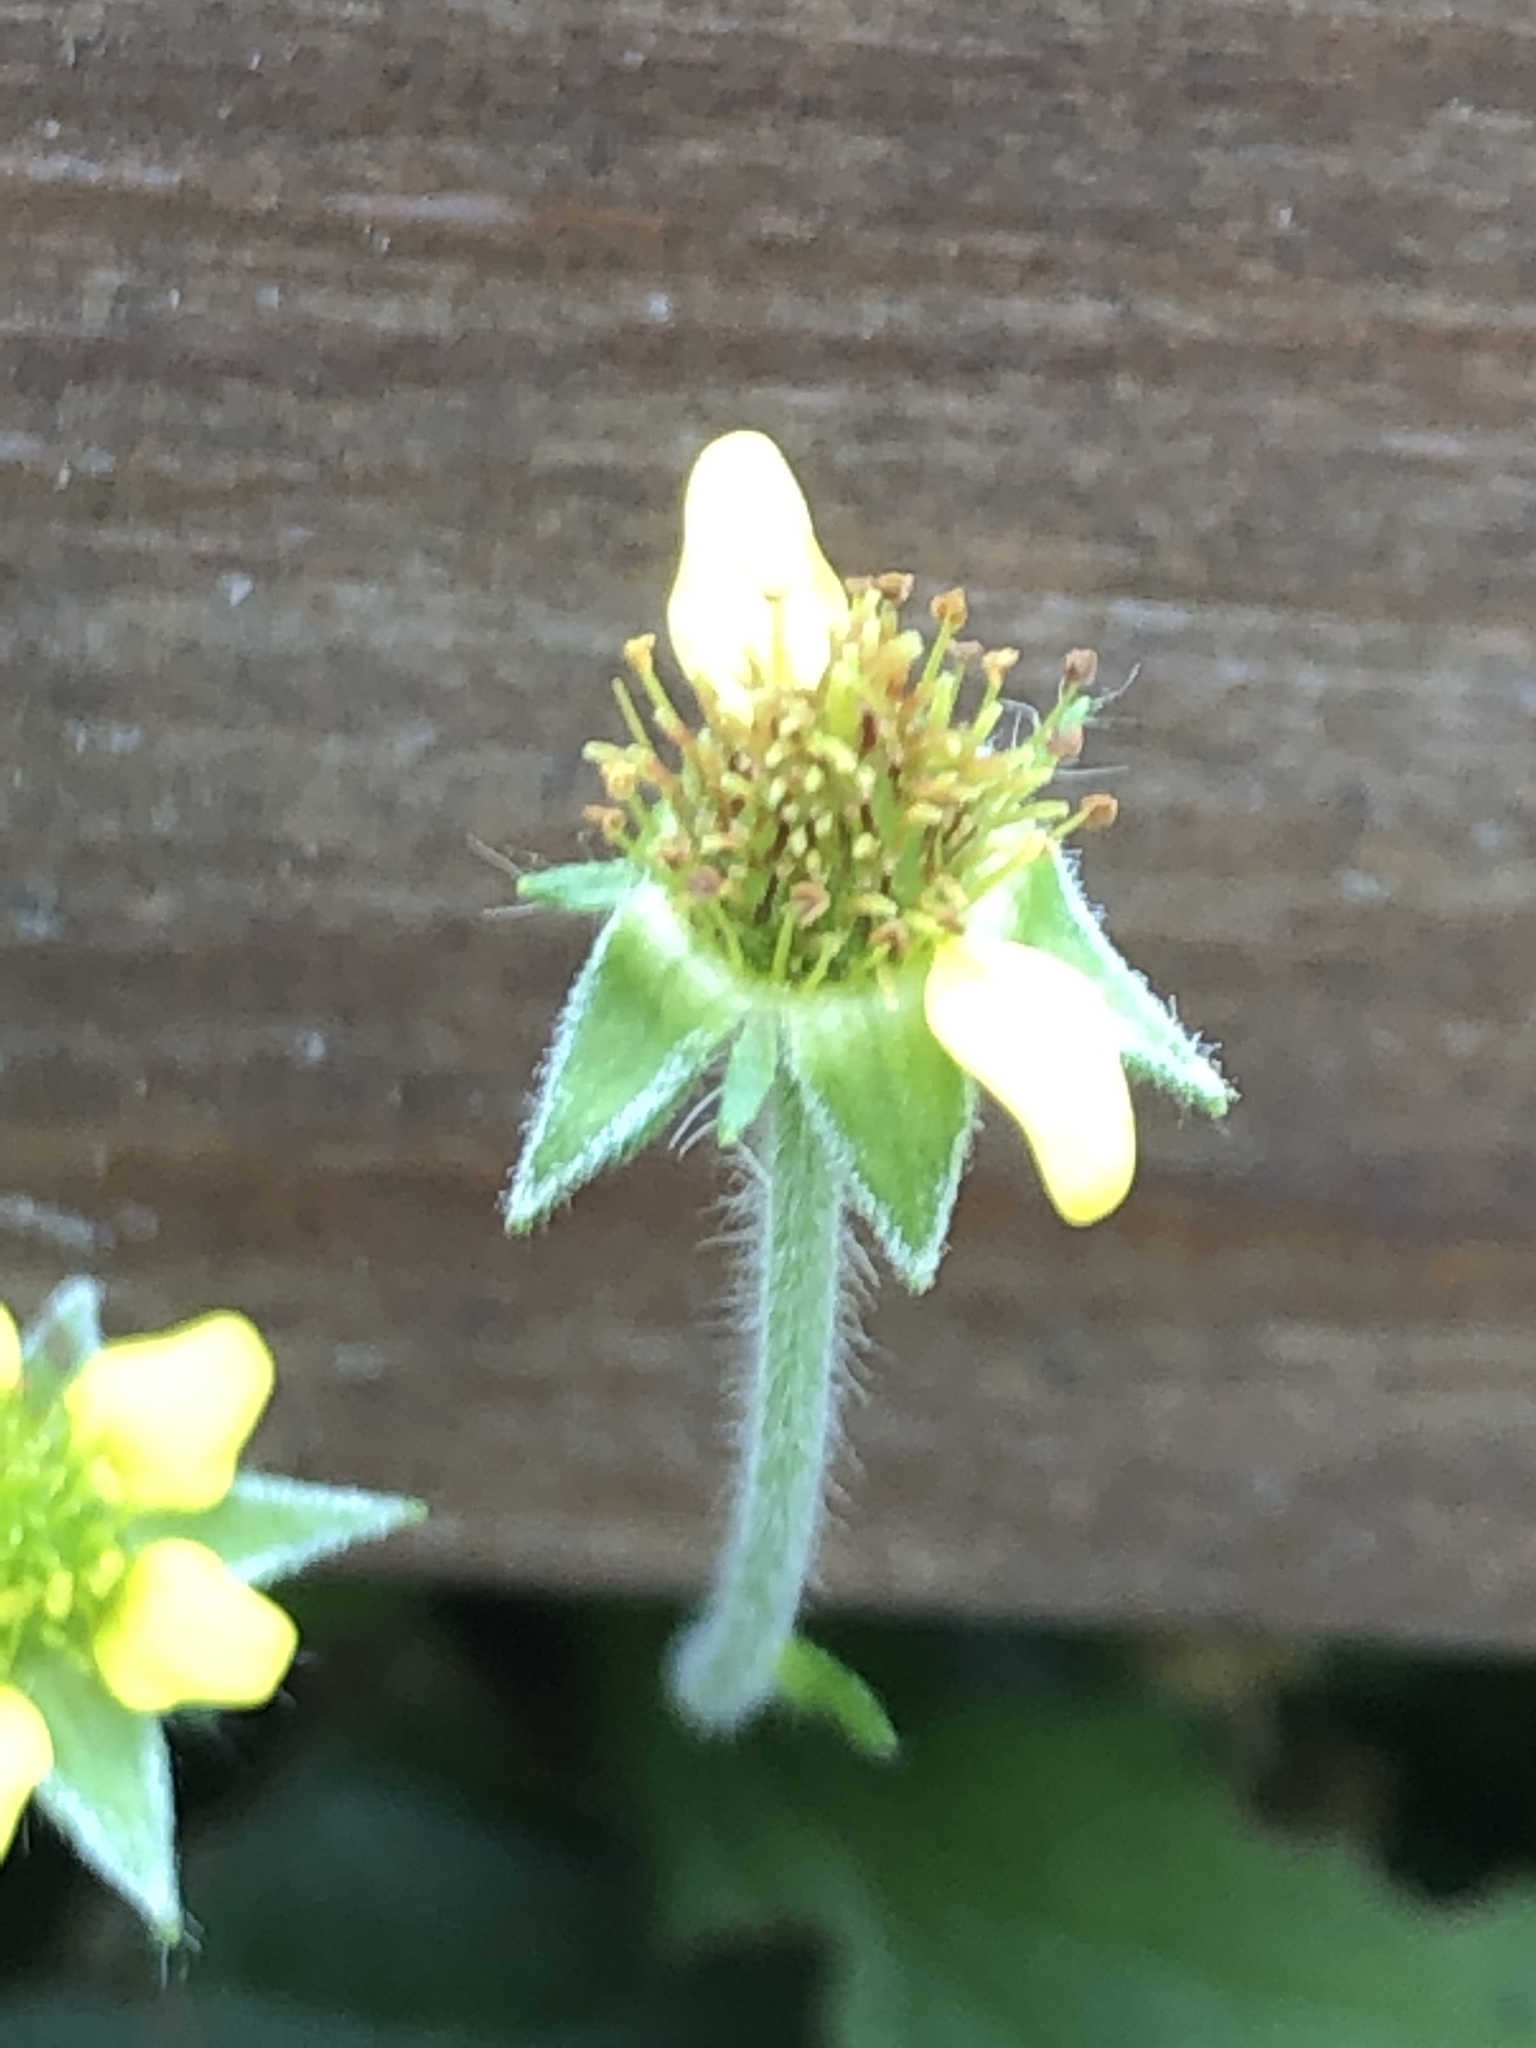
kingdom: Plantae
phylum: Tracheophyta
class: Magnoliopsida
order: Rosales
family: Rosaceae
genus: Geum
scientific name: Geum urbanum
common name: Wood avens
